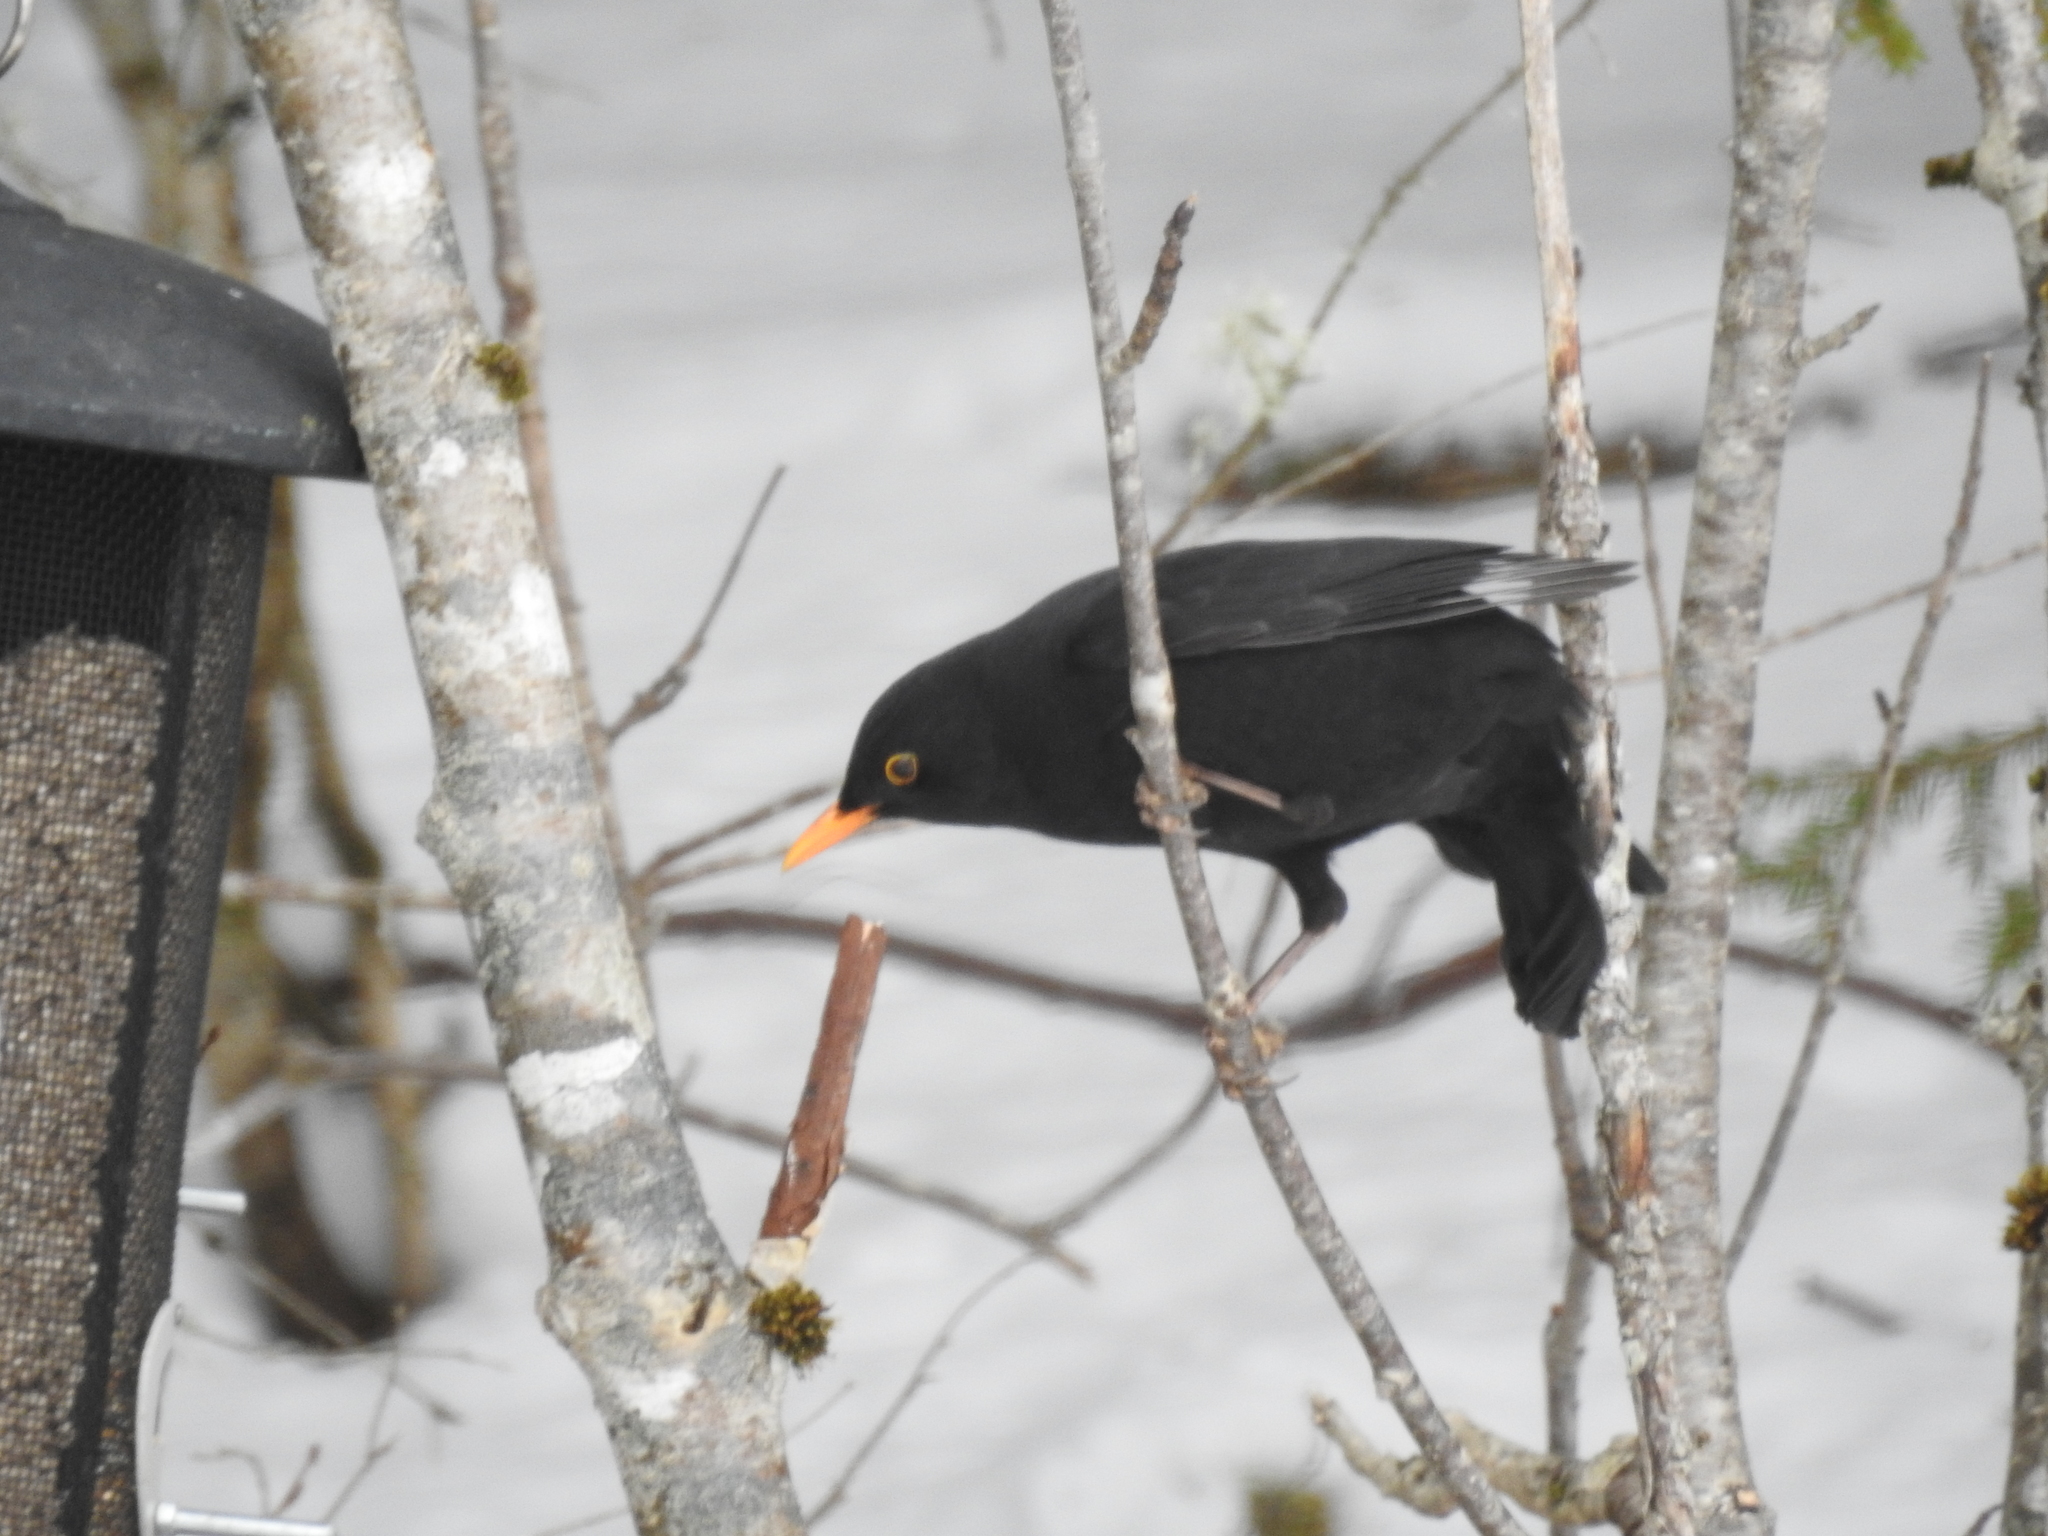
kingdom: Animalia
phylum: Chordata
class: Aves
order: Passeriformes
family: Turdidae
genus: Turdus
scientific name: Turdus merula
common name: Common blackbird
